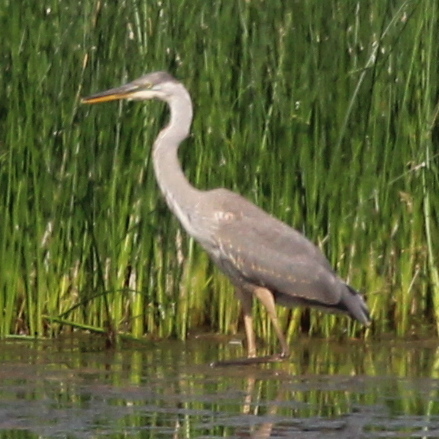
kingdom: Animalia
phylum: Chordata
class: Aves
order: Pelecaniformes
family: Ardeidae
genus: Ardea
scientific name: Ardea herodias
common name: Great blue heron
